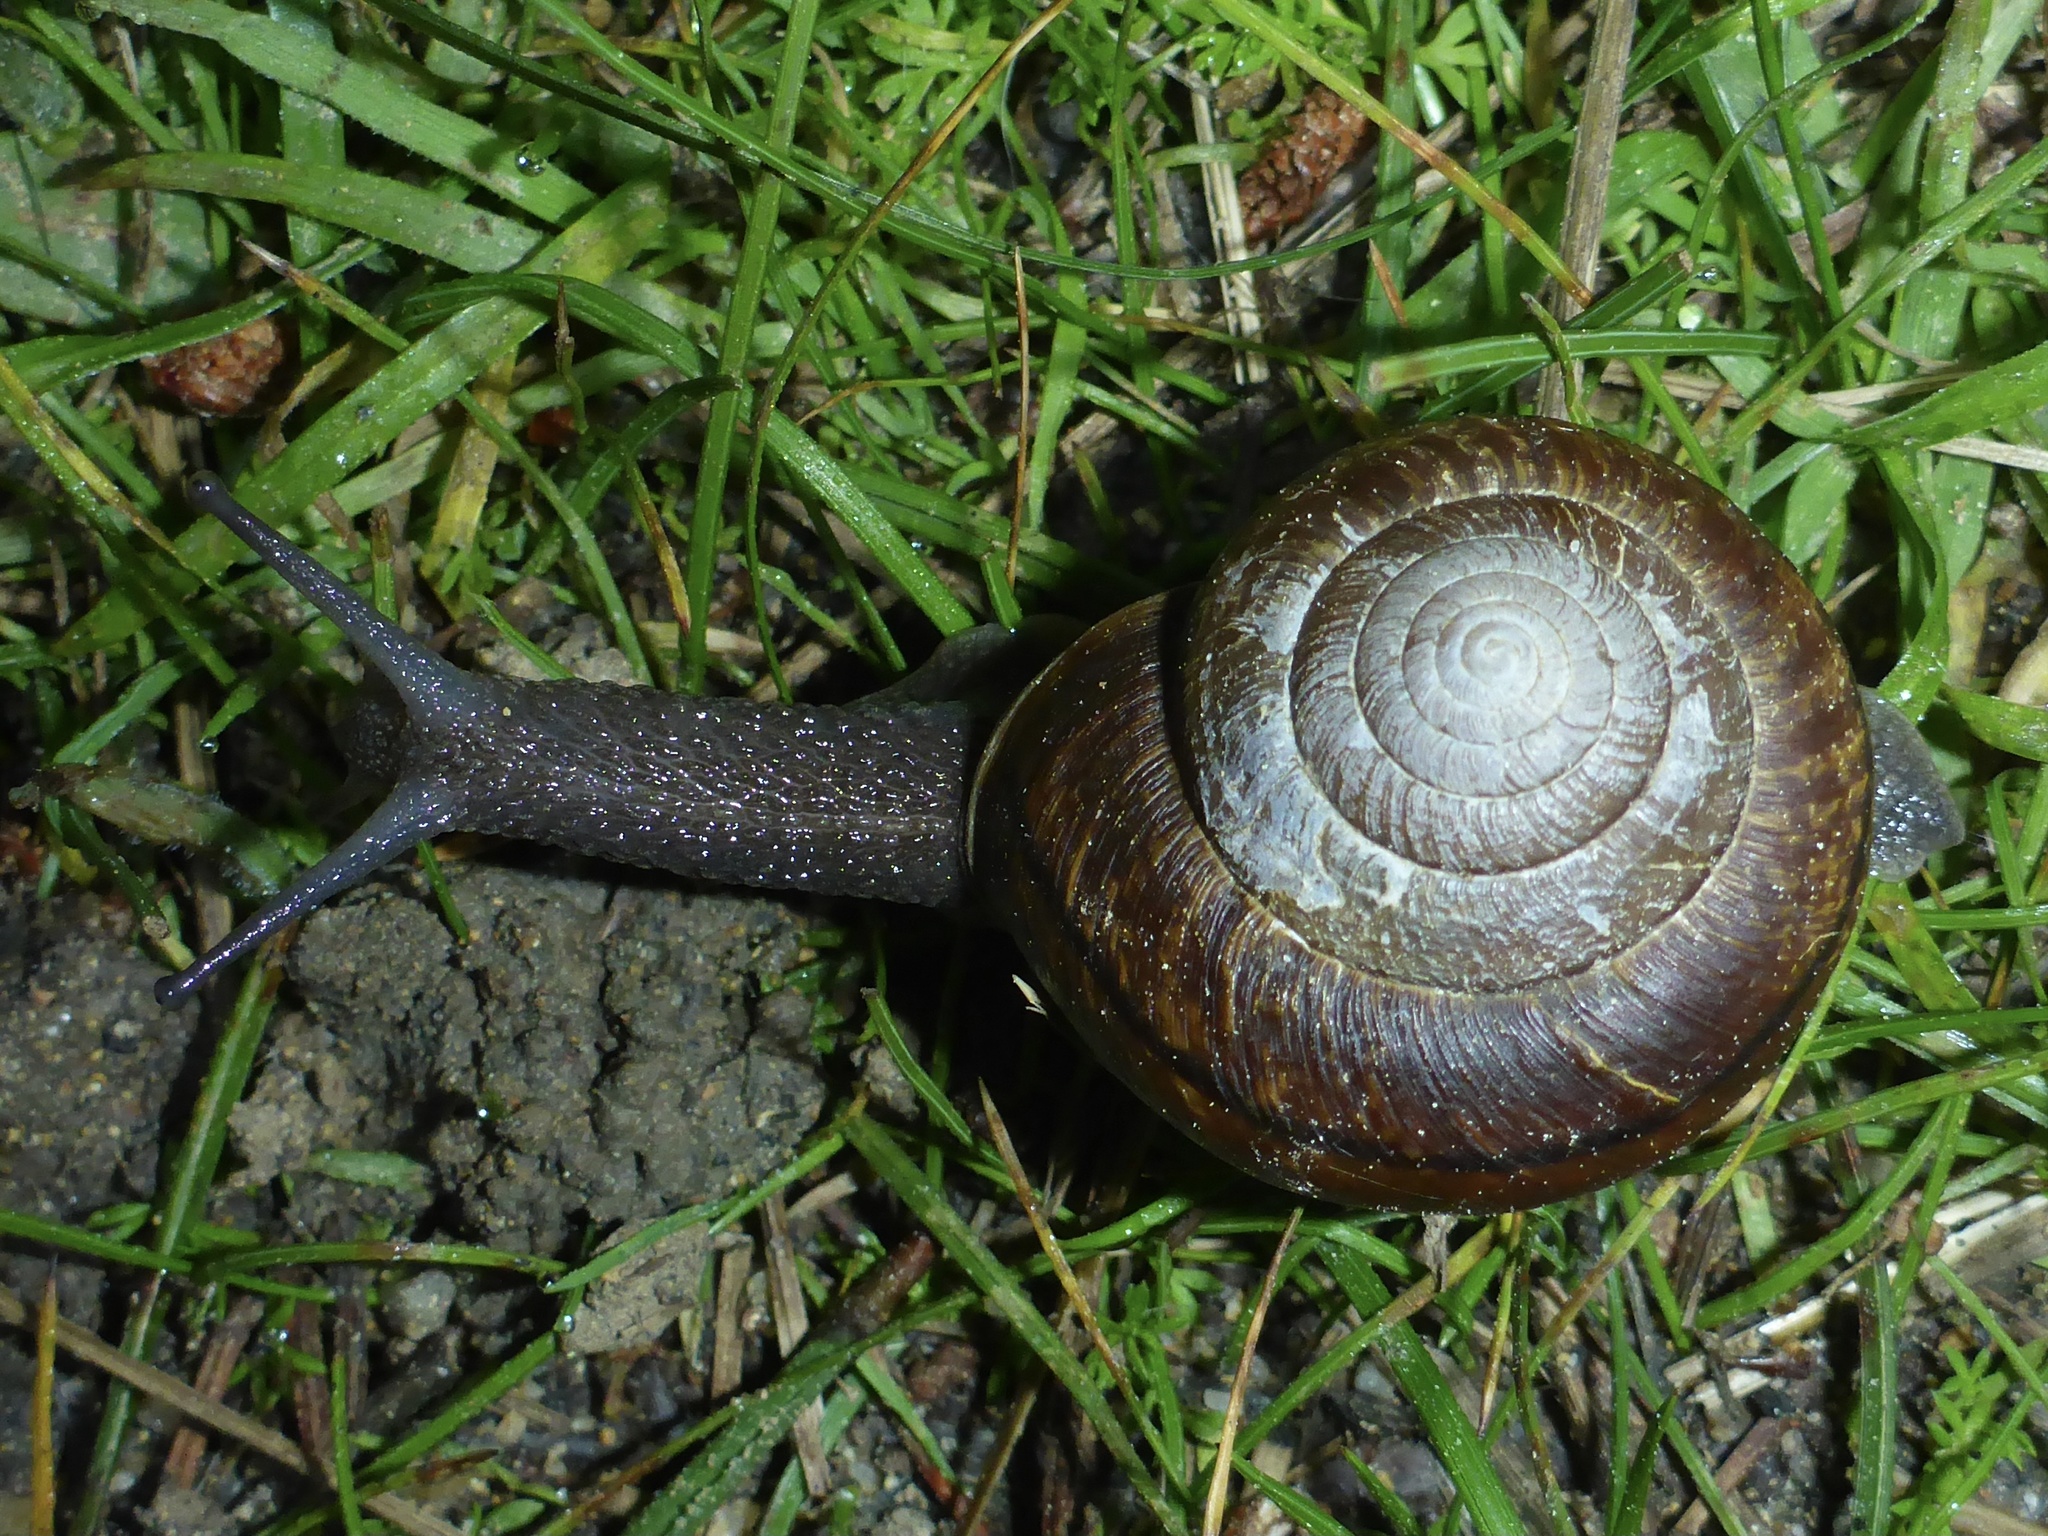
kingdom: Animalia
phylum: Mollusca
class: Gastropoda
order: Stylommatophora
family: Xanthonychidae
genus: Helminthoglypta
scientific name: Helminthoglypta arrosa
